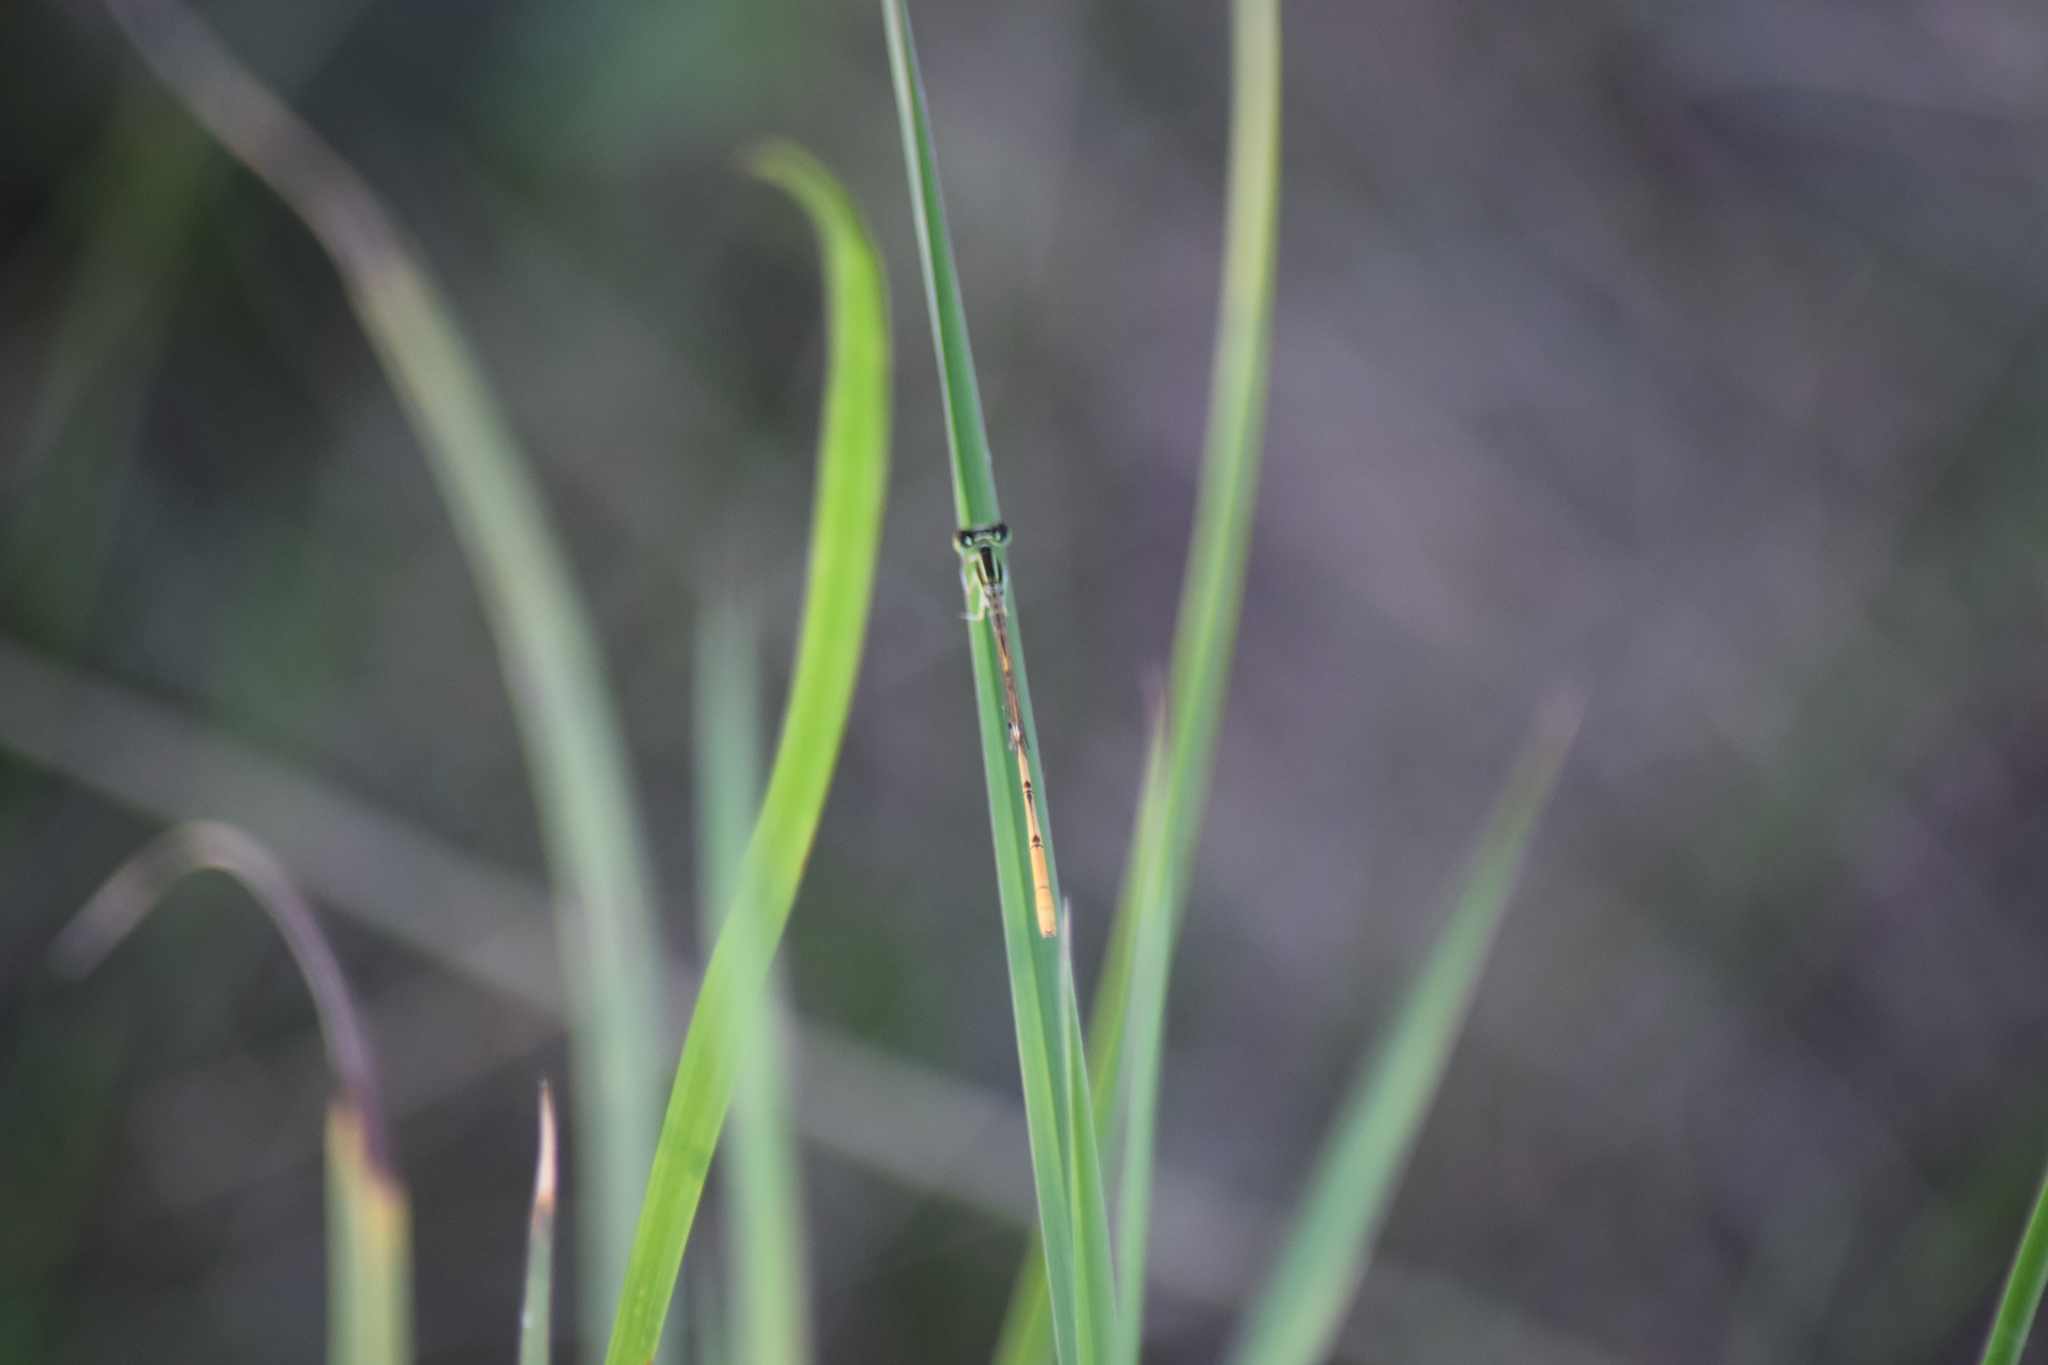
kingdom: Animalia
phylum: Arthropoda
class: Insecta
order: Odonata
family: Coenagrionidae
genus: Ischnura
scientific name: Ischnura hastata
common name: Citrine forktail
